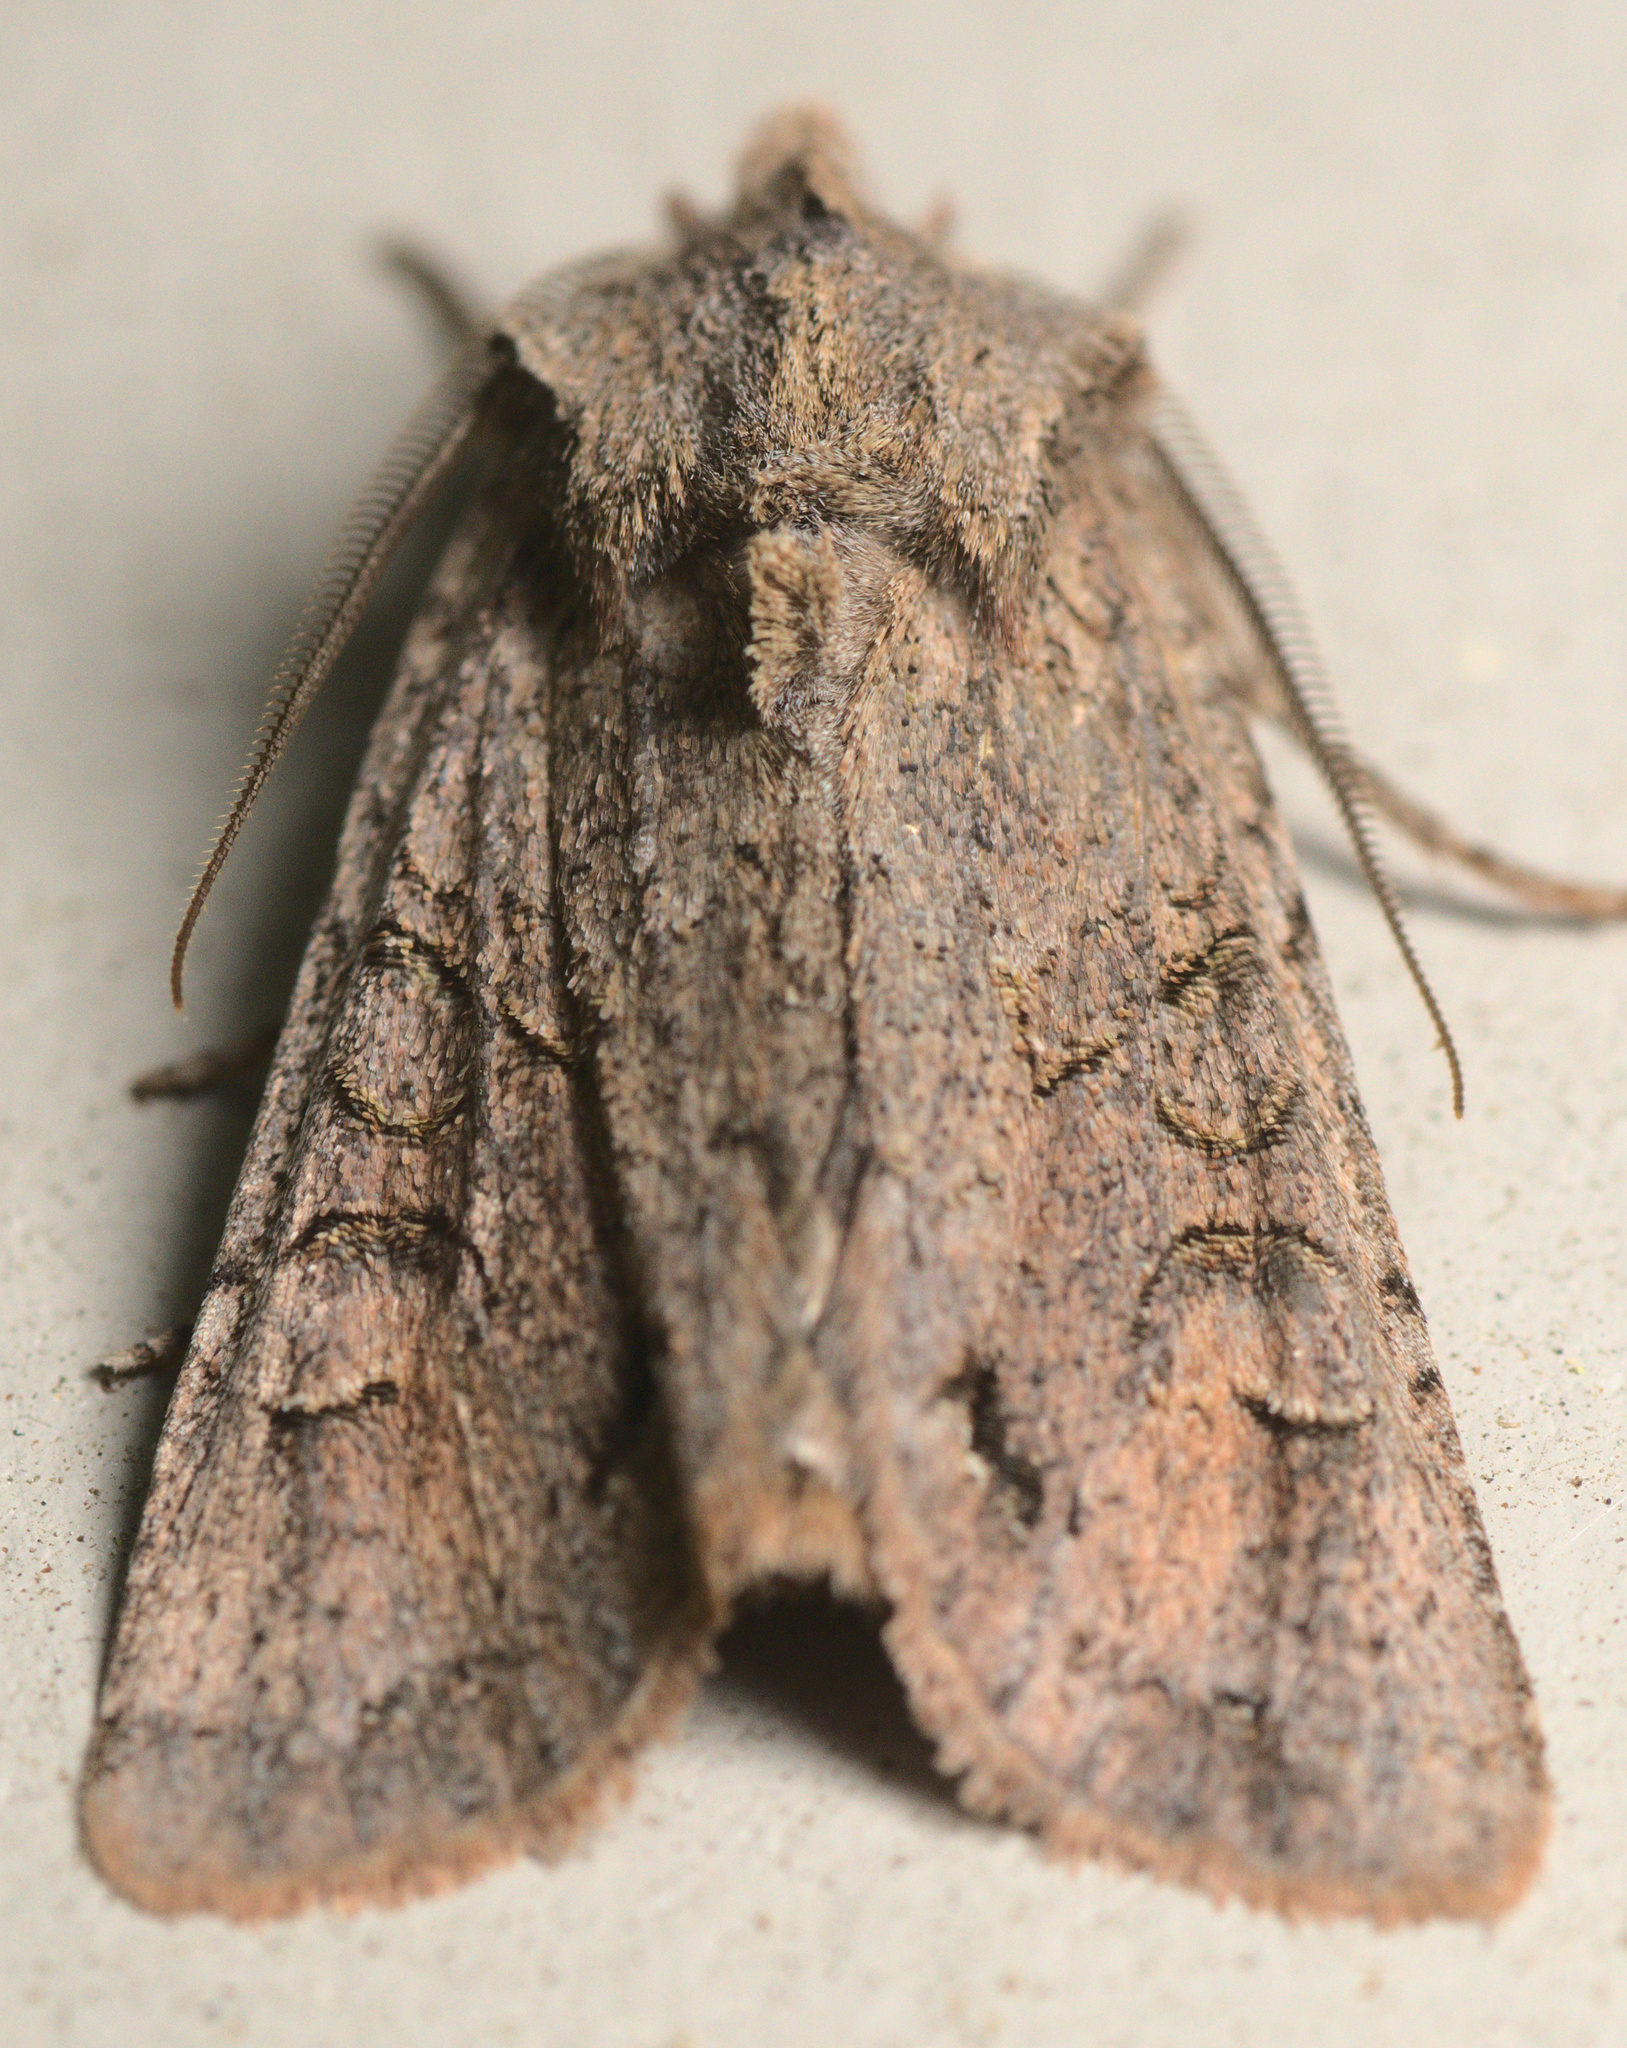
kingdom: Animalia
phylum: Arthropoda
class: Insecta
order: Lepidoptera
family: Noctuidae
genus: Ichneutica
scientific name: Ichneutica skelloni
